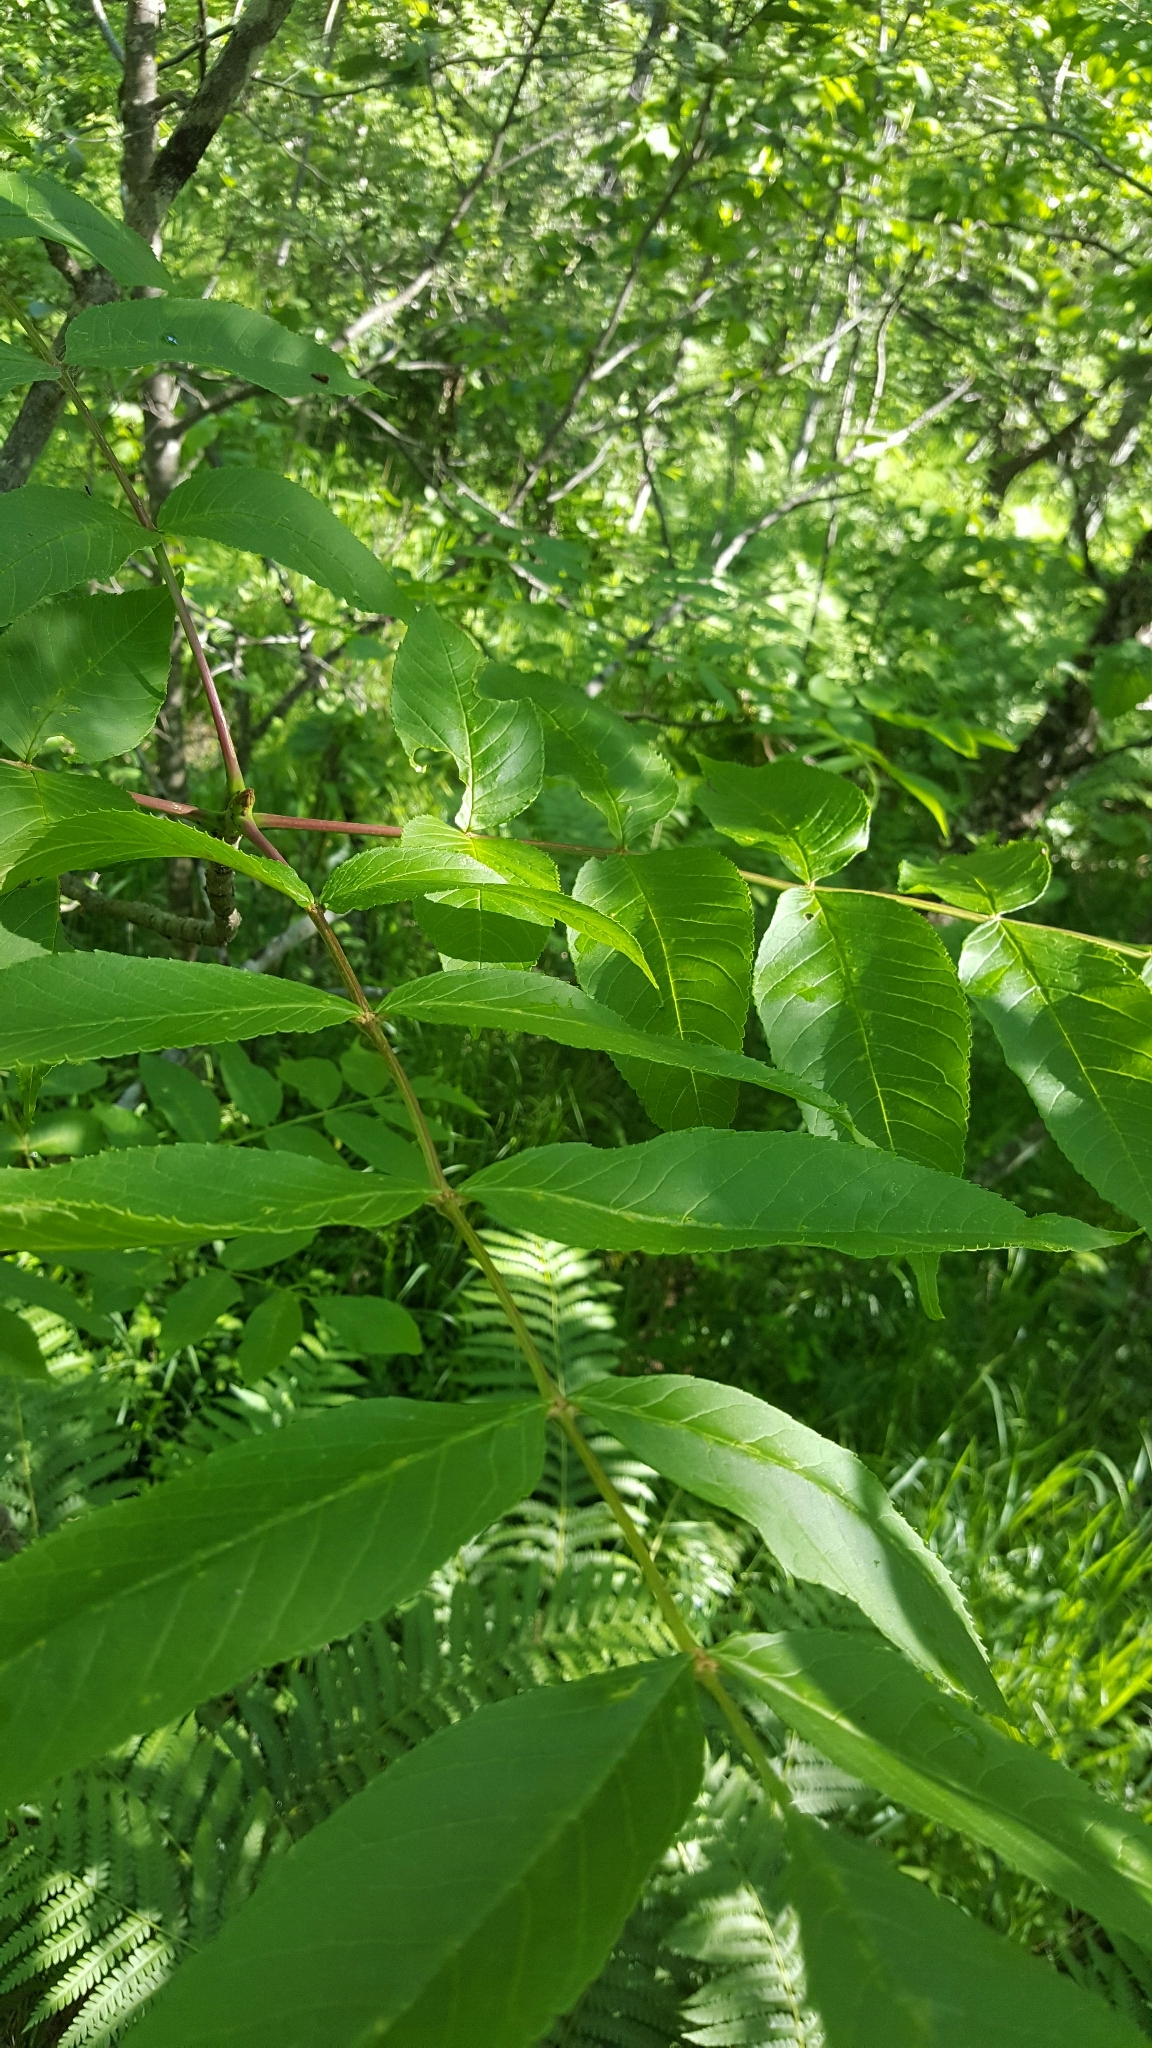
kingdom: Plantae
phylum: Tracheophyta
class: Magnoliopsida
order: Lamiales
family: Oleaceae
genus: Fraxinus
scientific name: Fraxinus nigra
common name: Black ash
